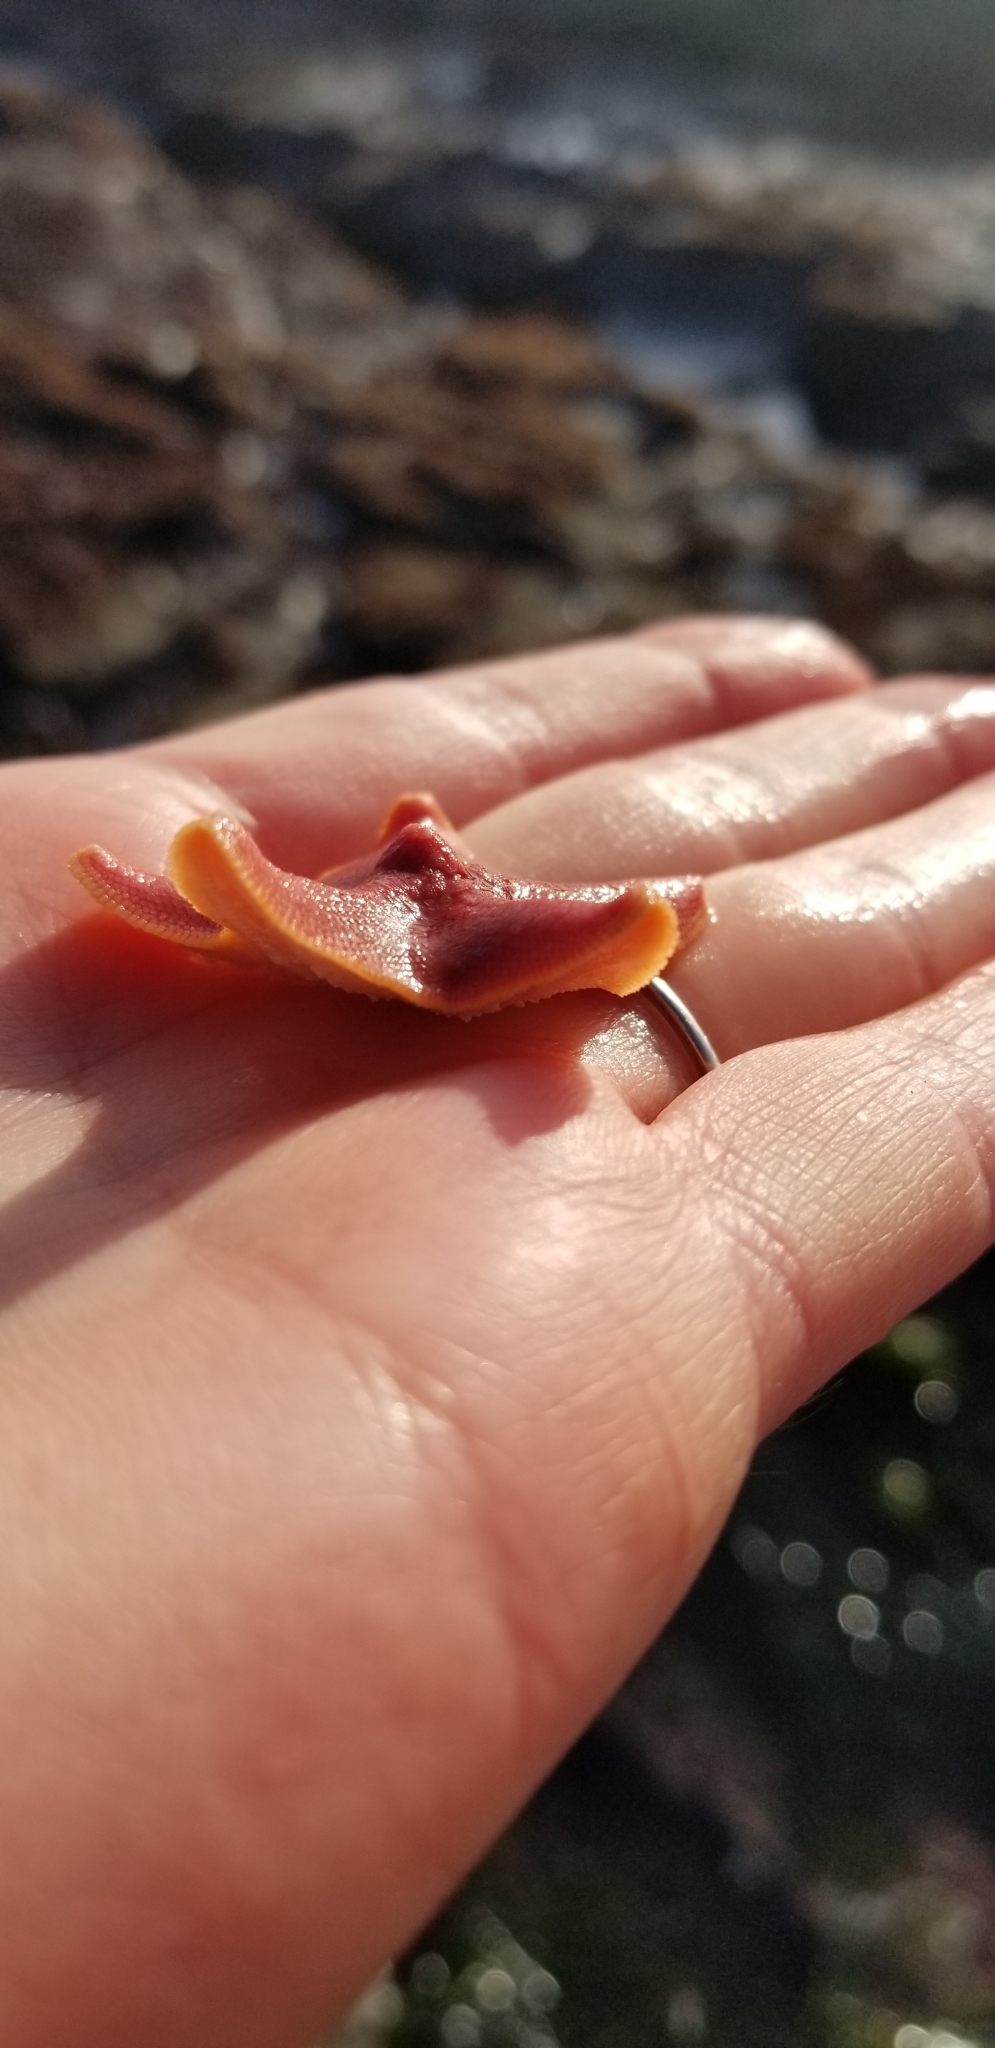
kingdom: Animalia
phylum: Echinodermata
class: Asteroidea
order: Valvatida
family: Asterinidae
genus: Patiria
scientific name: Patiria miniata
